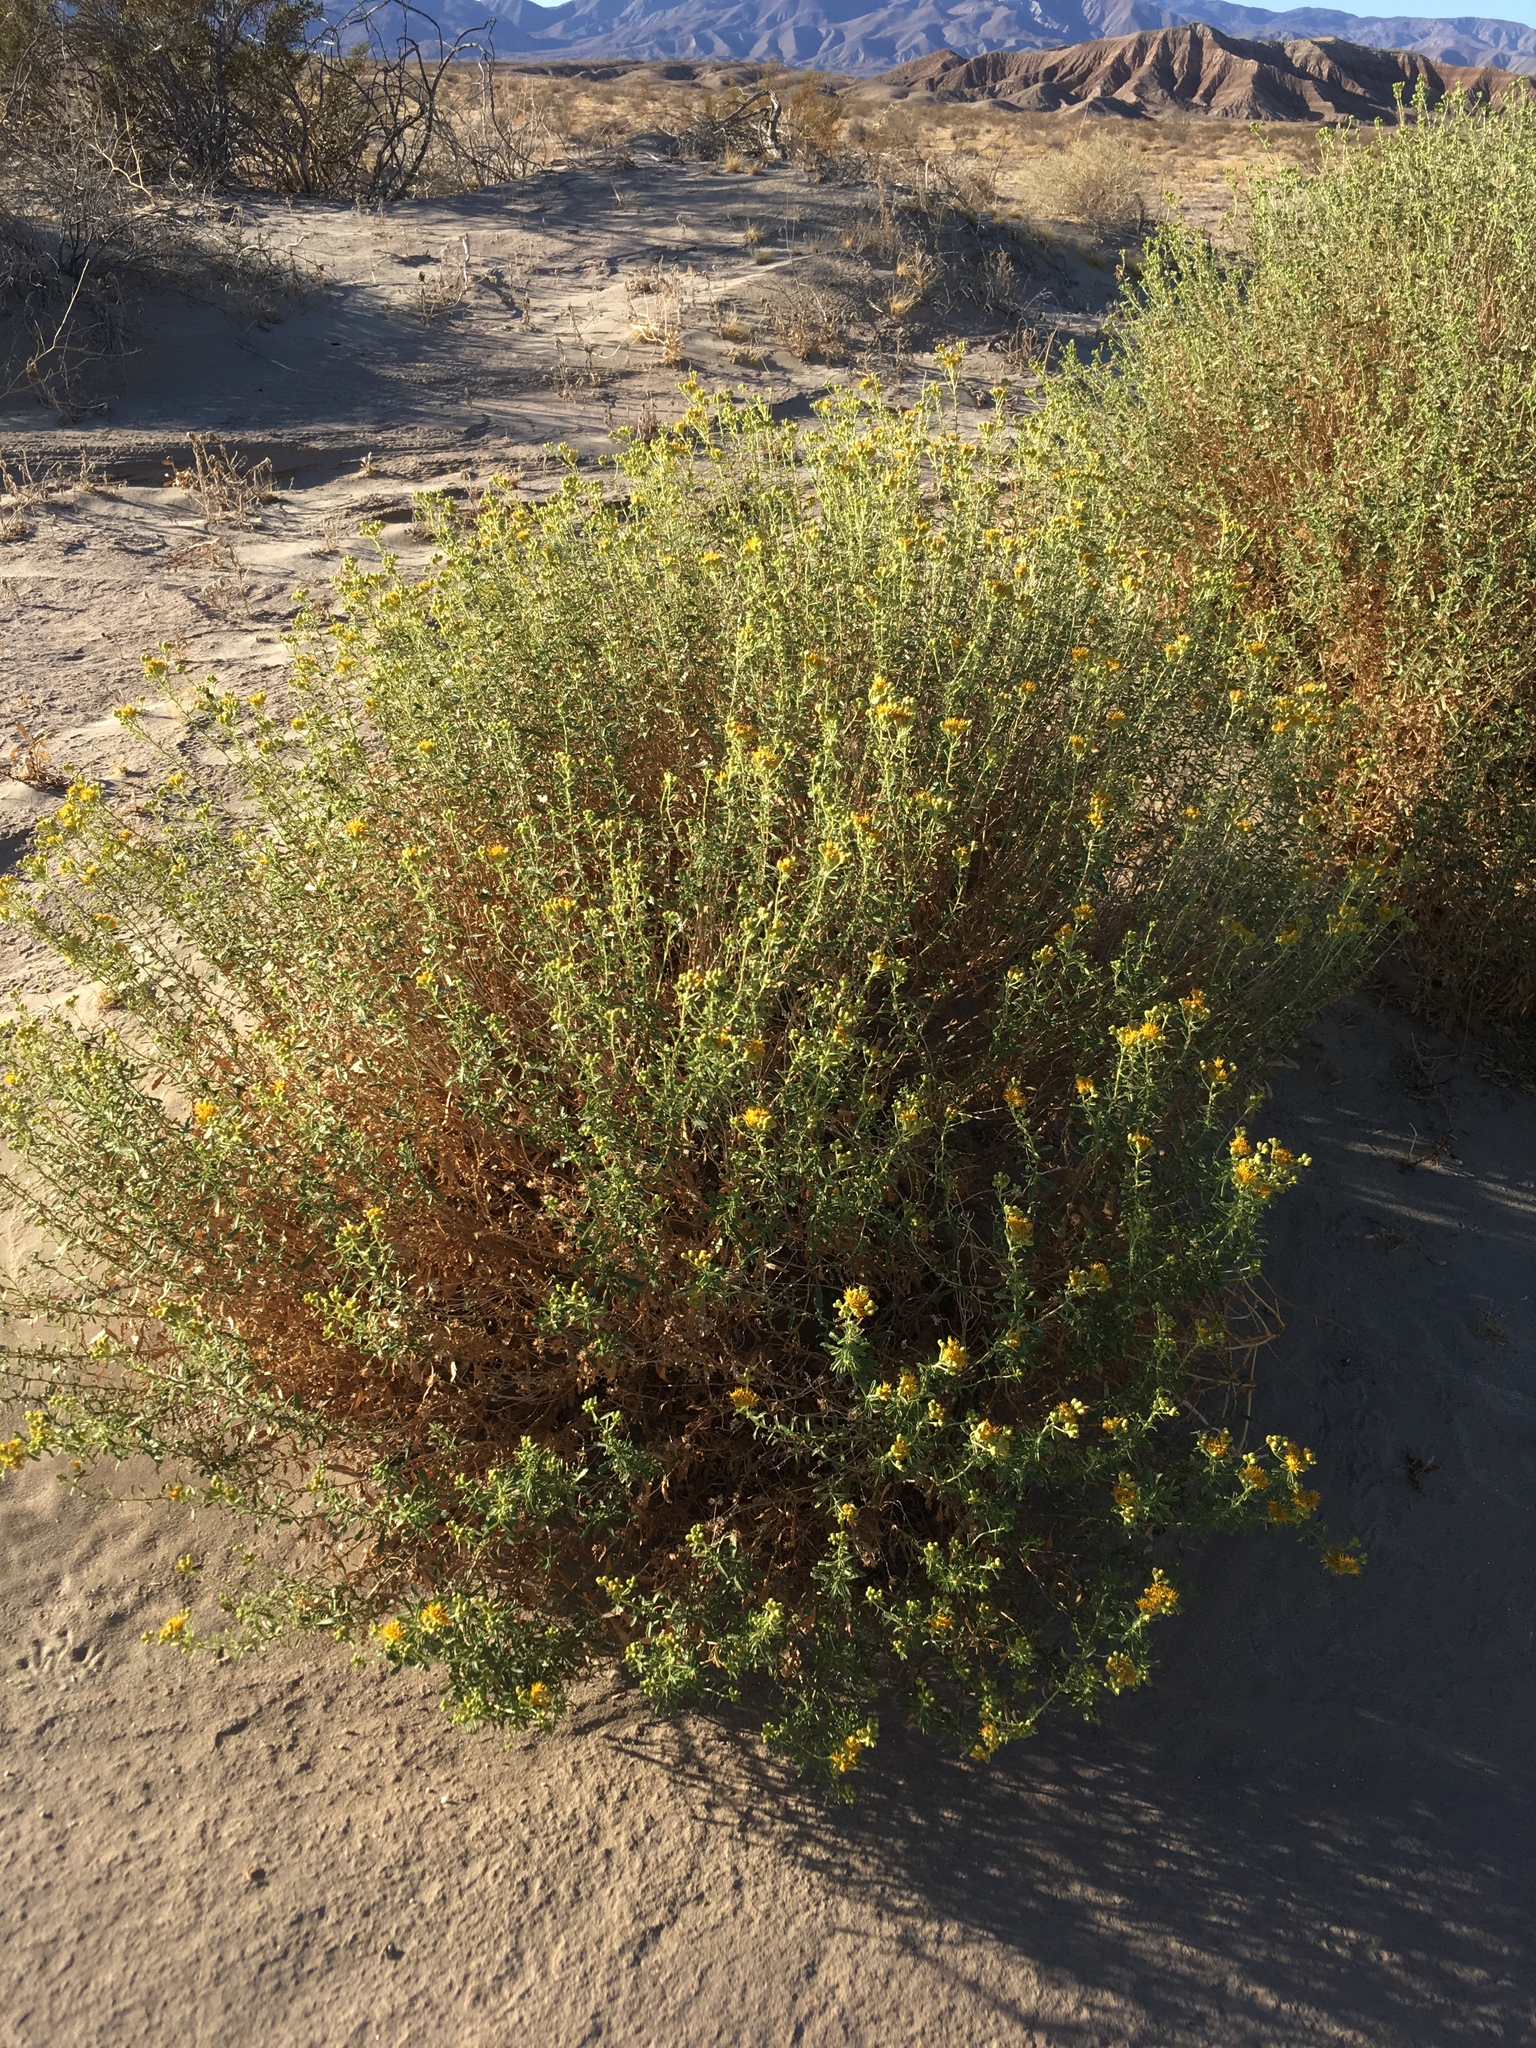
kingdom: Plantae
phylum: Tracheophyta
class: Magnoliopsida
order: Asterales
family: Asteraceae
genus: Isocoma
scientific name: Isocoma acradenia
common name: Alkali jimmyweed
